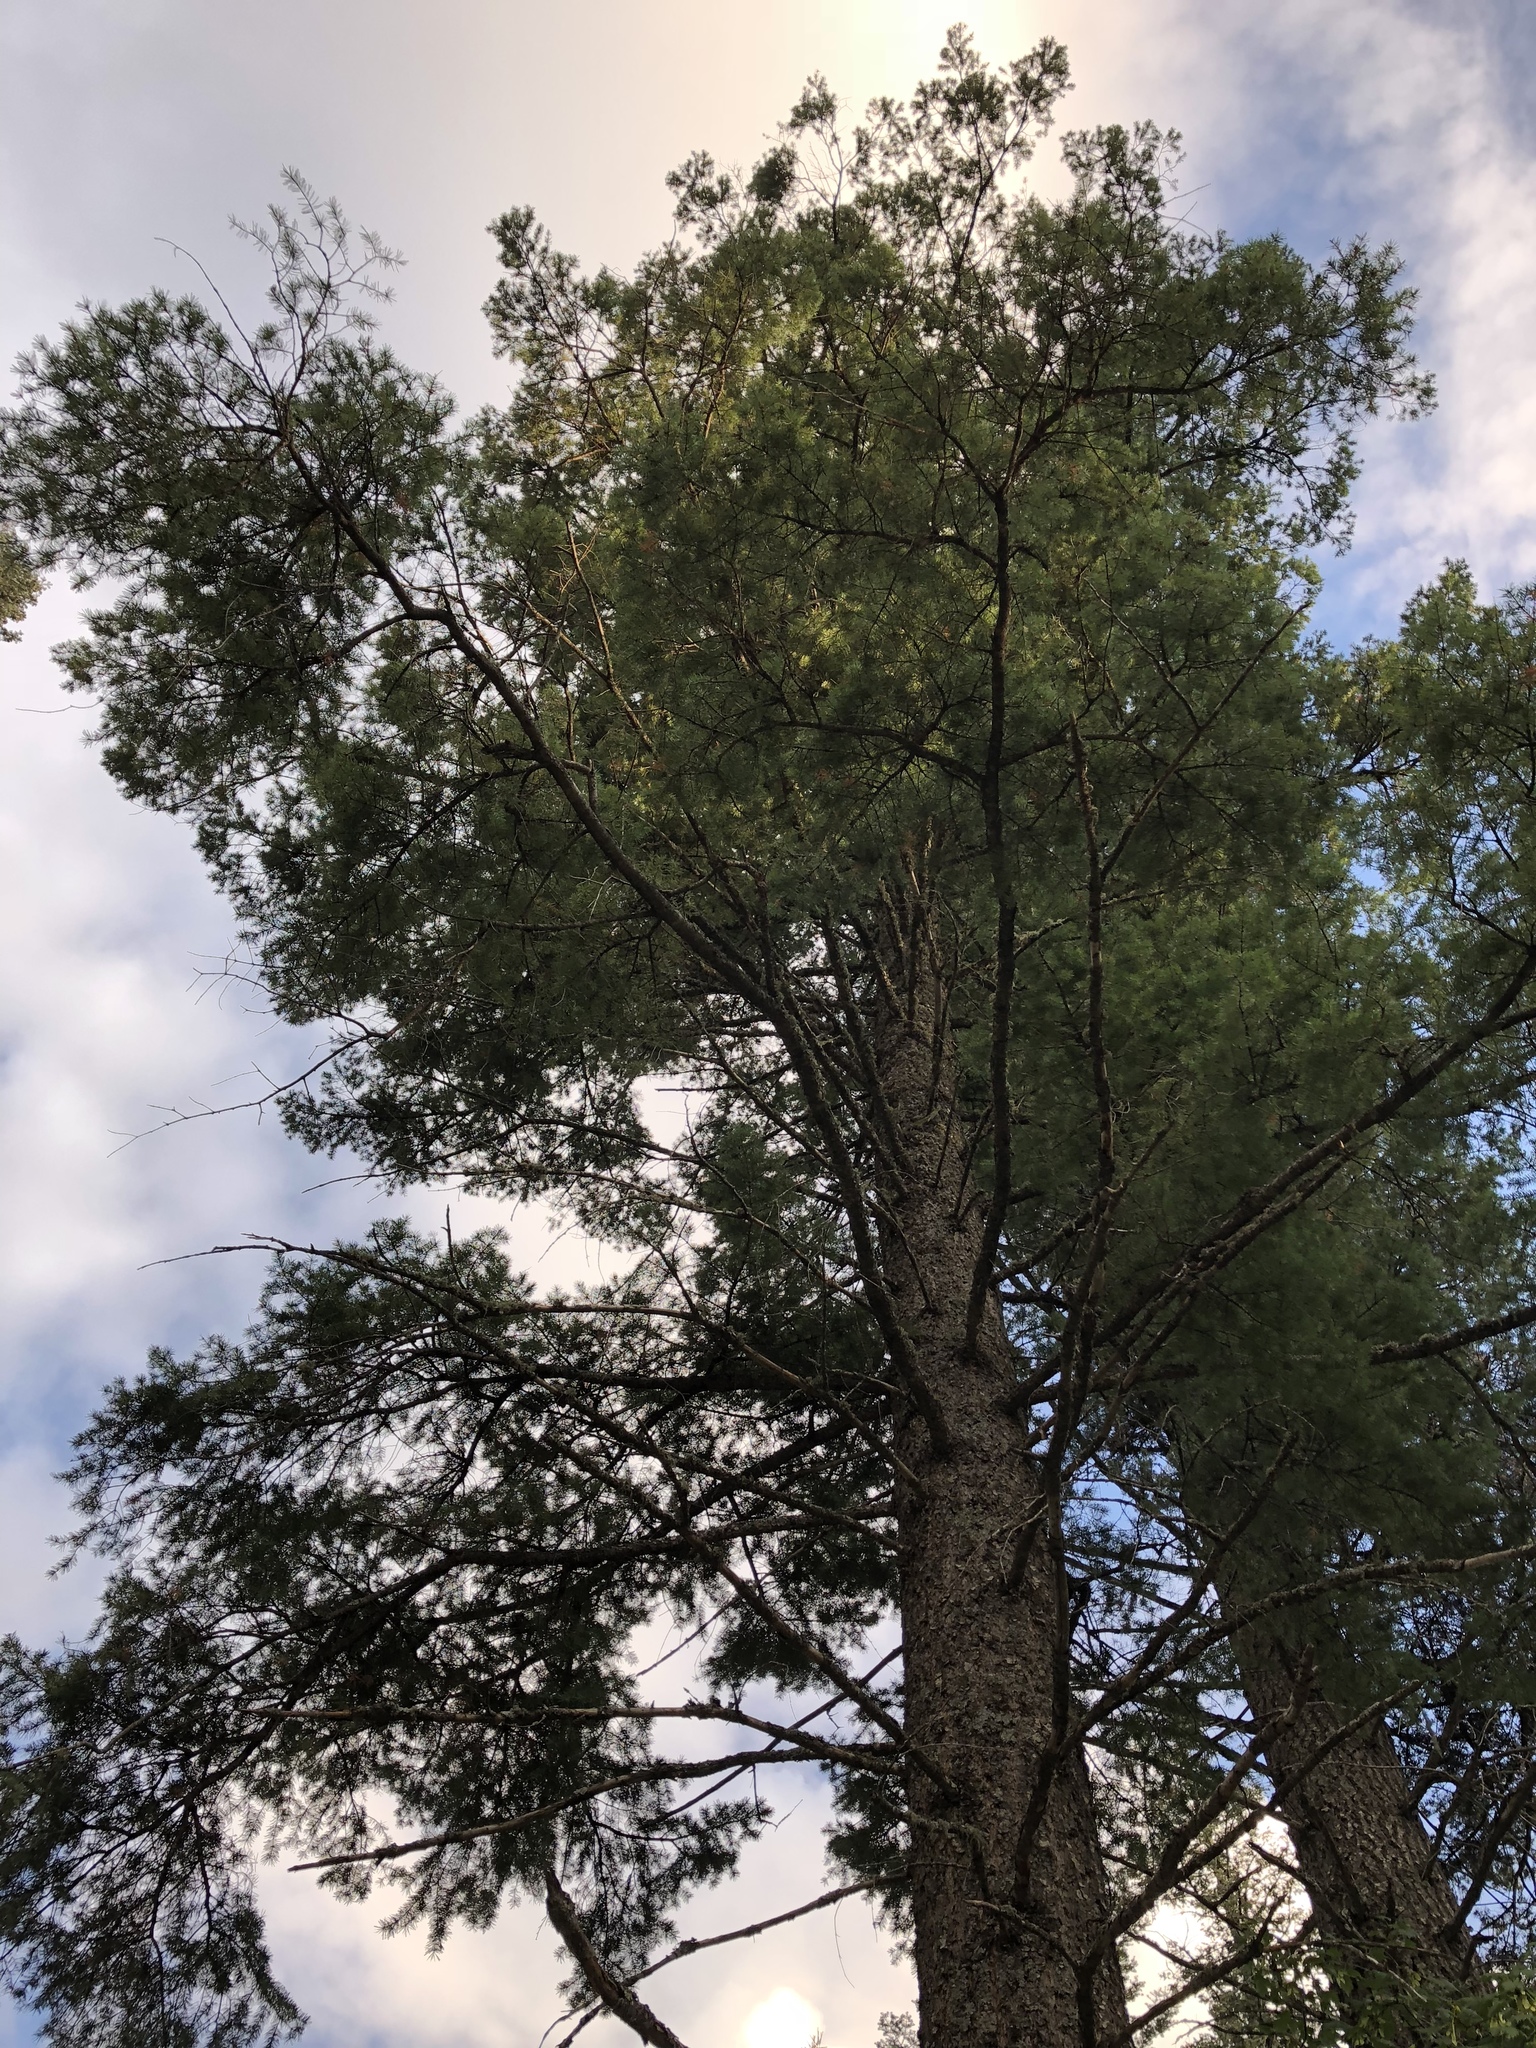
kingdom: Plantae
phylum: Tracheophyta
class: Pinopsida
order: Pinales
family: Pinaceae
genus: Pseudotsuga
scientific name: Pseudotsuga menziesii
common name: Douglas fir
